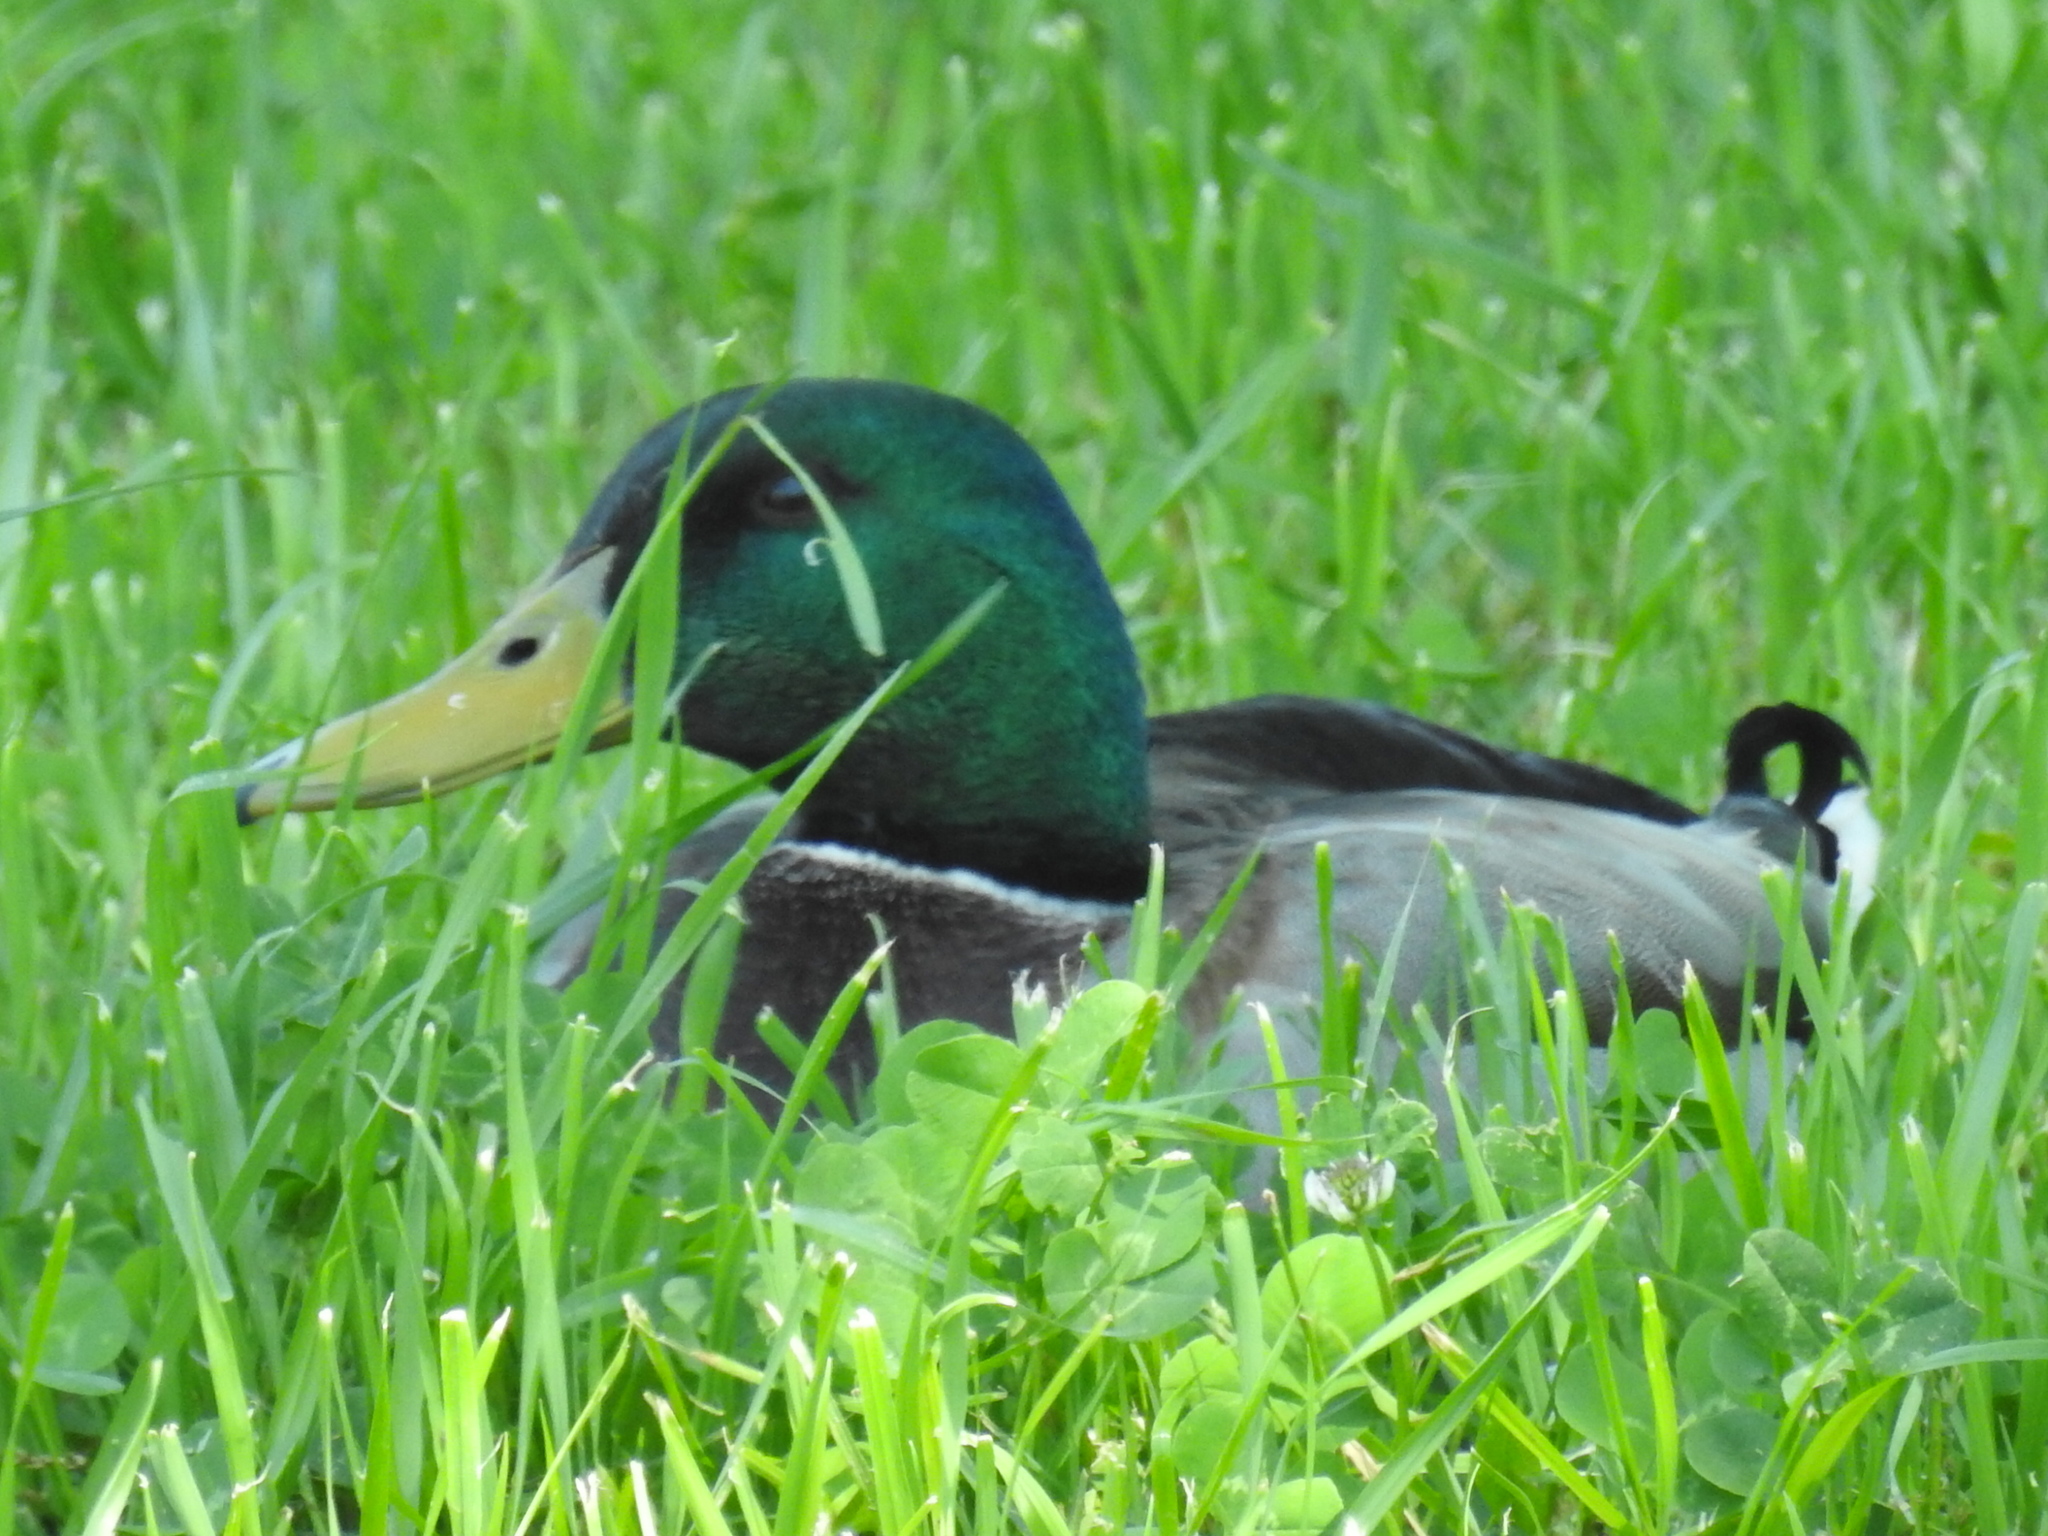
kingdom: Animalia
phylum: Chordata
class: Aves
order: Anseriformes
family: Anatidae
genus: Anas
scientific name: Anas platyrhynchos
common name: Mallard
